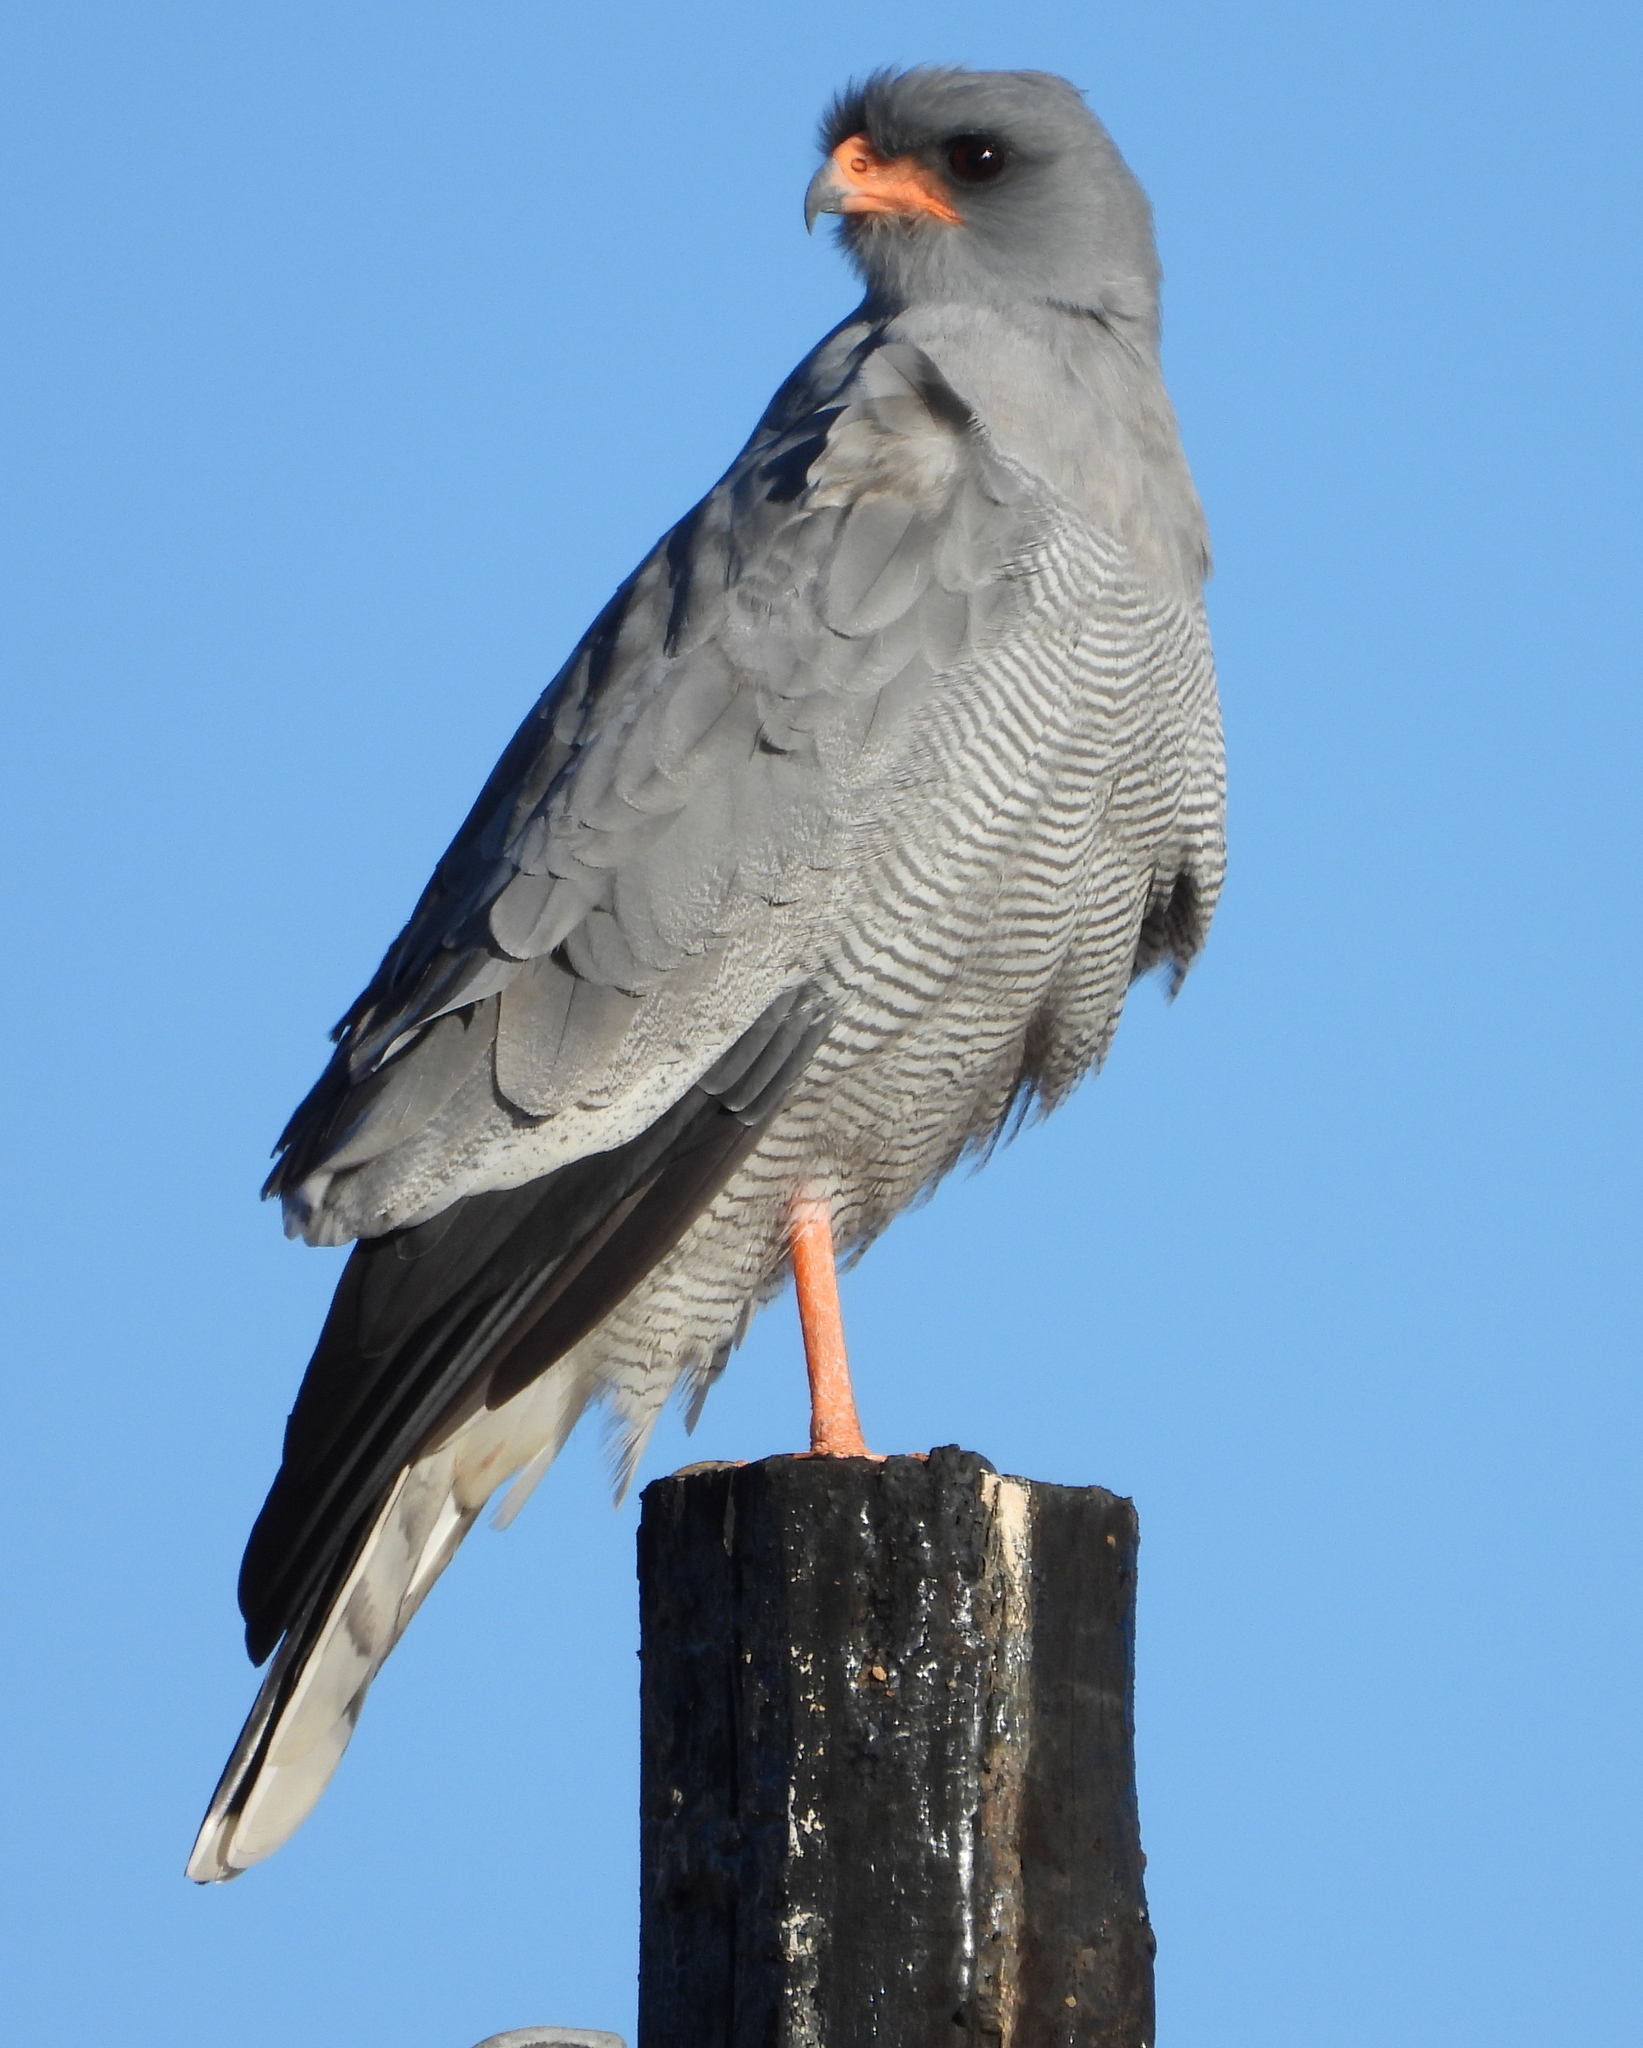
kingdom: Animalia
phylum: Chordata
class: Aves
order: Accipitriformes
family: Accipitridae
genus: Melierax
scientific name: Melierax canorus
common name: Pale chanting-goshawk
